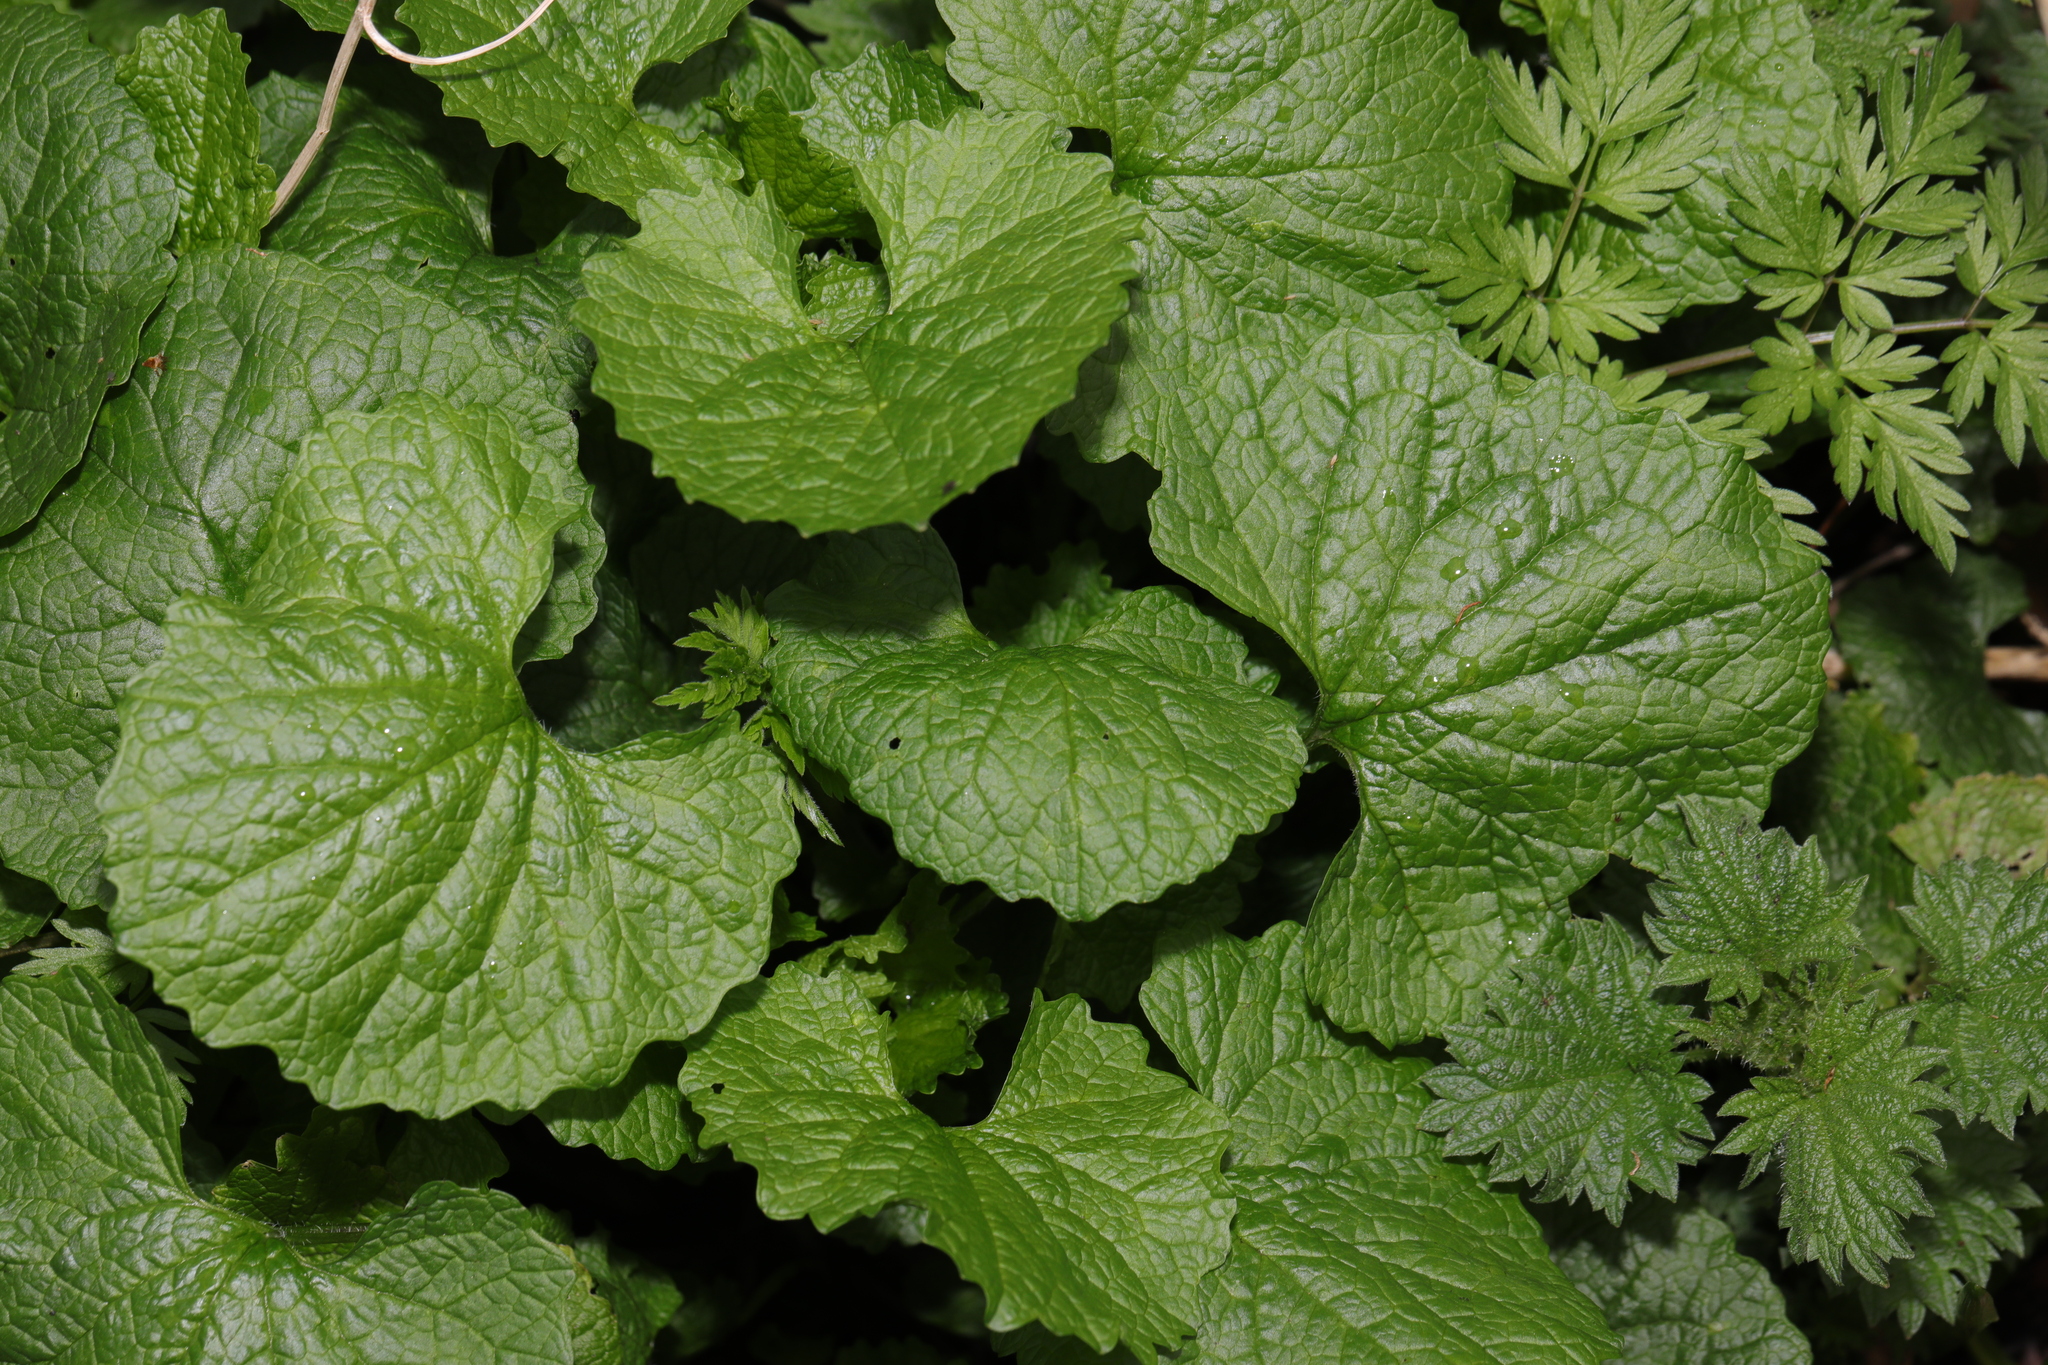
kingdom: Plantae
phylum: Tracheophyta
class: Magnoliopsida
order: Brassicales
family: Brassicaceae
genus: Alliaria
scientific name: Alliaria petiolata
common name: Garlic mustard
